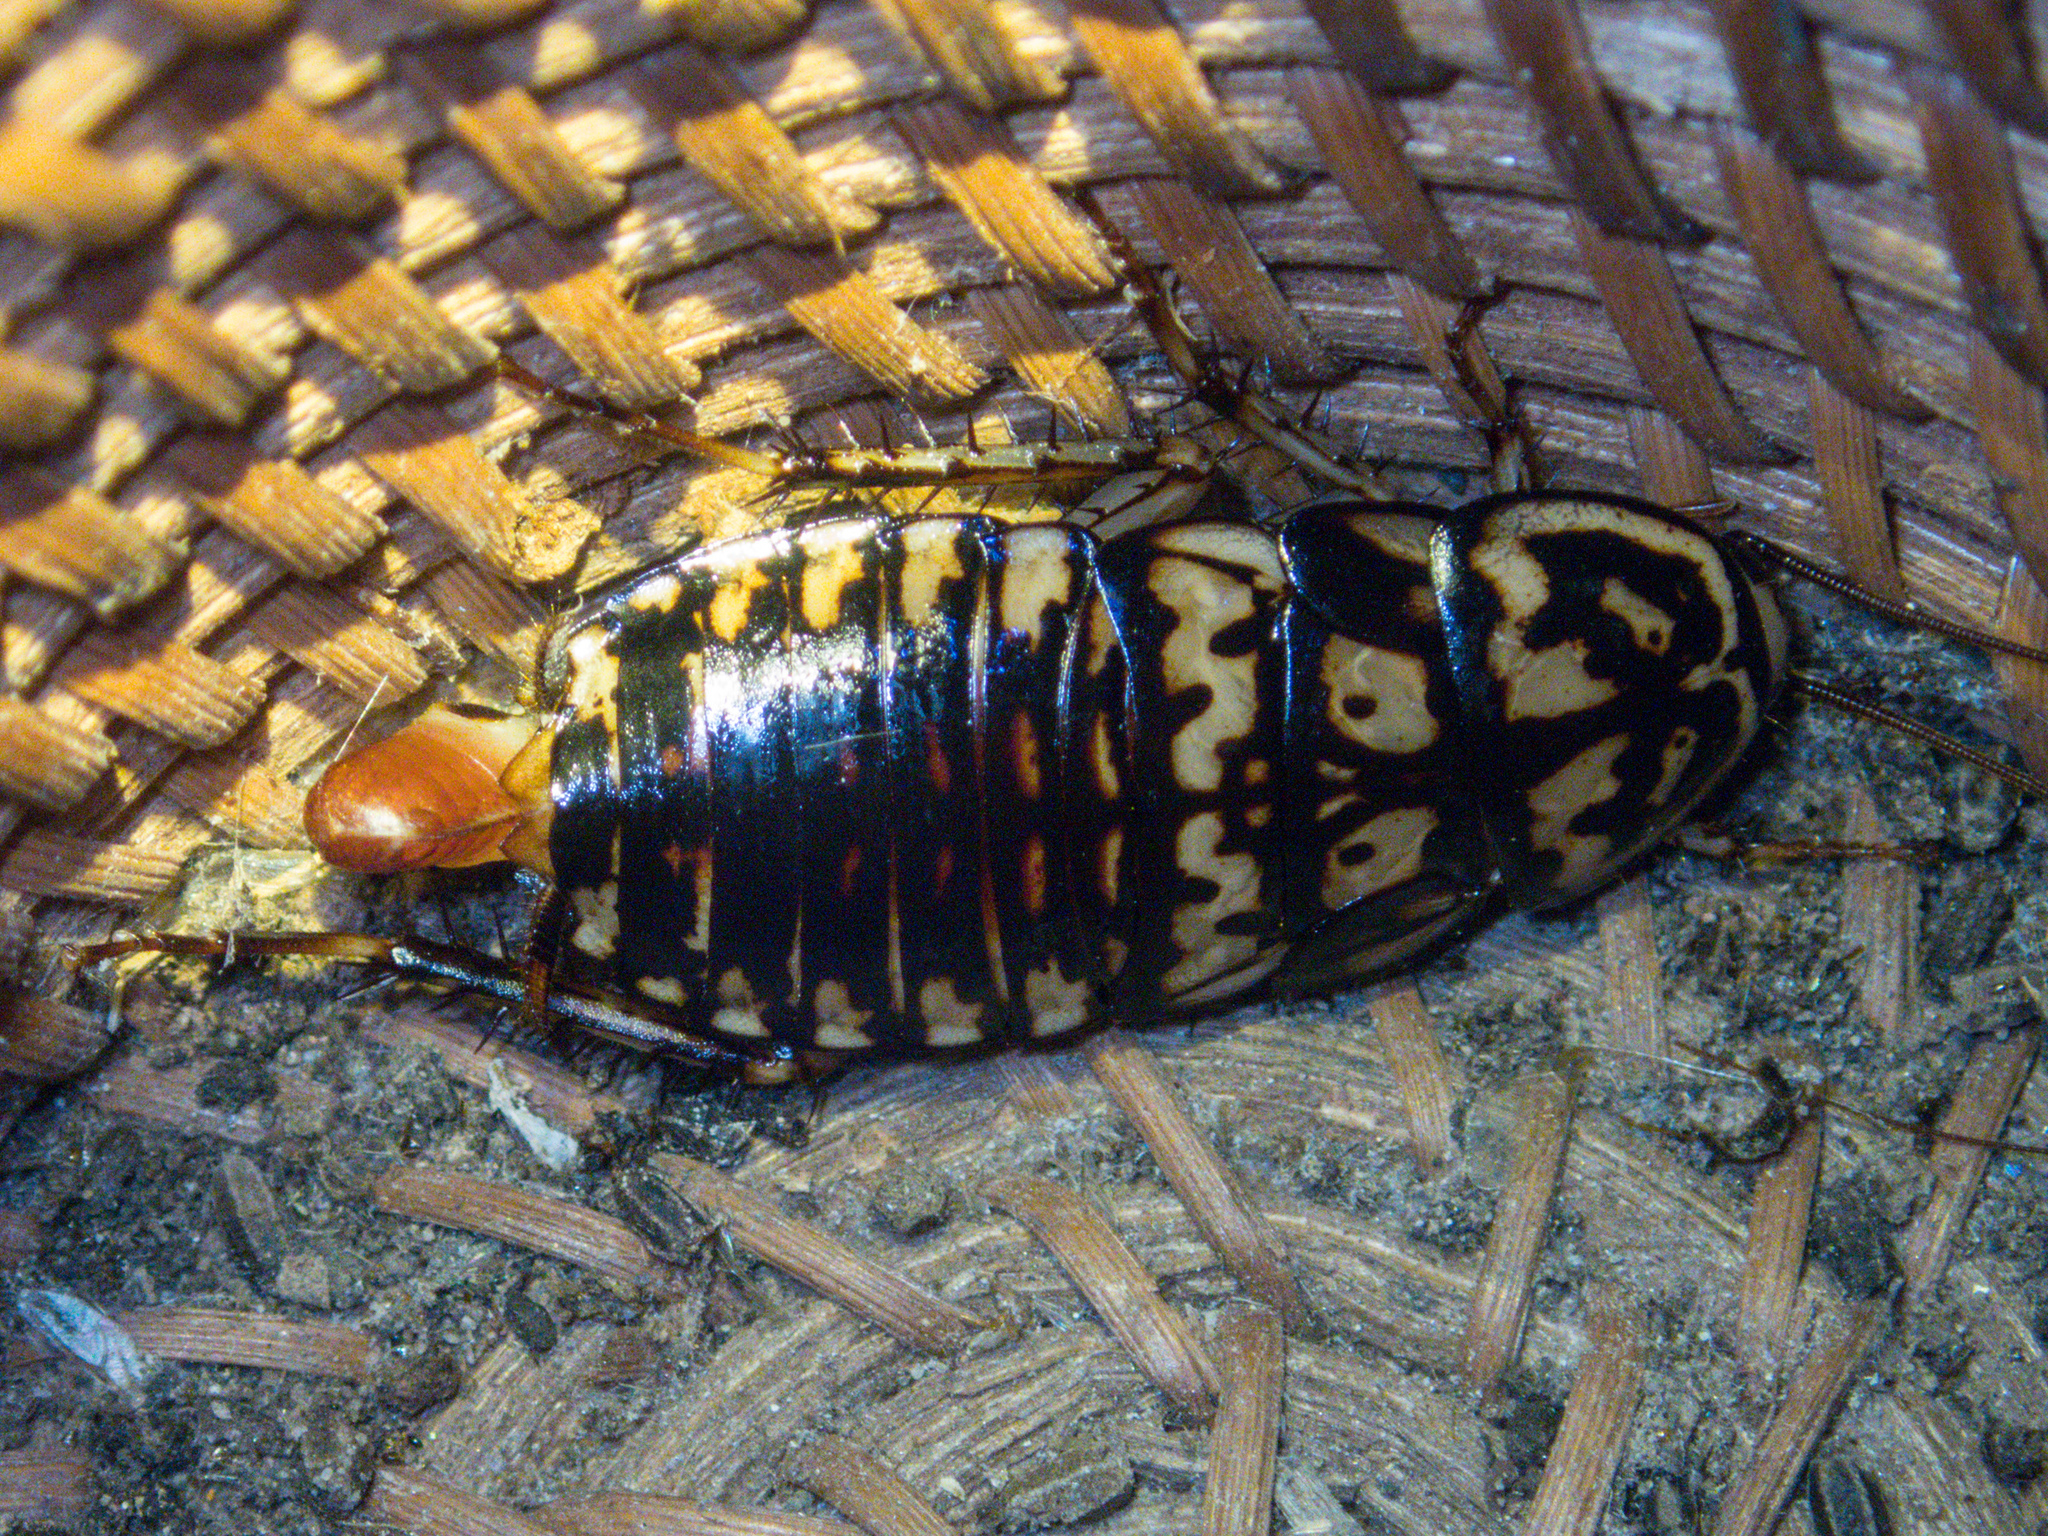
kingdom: Animalia
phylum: Arthropoda
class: Insecta
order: Blattodea
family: Blattidae
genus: Neostylopyga
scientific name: Neostylopyga rhombifolia
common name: Harlequin cockroach
